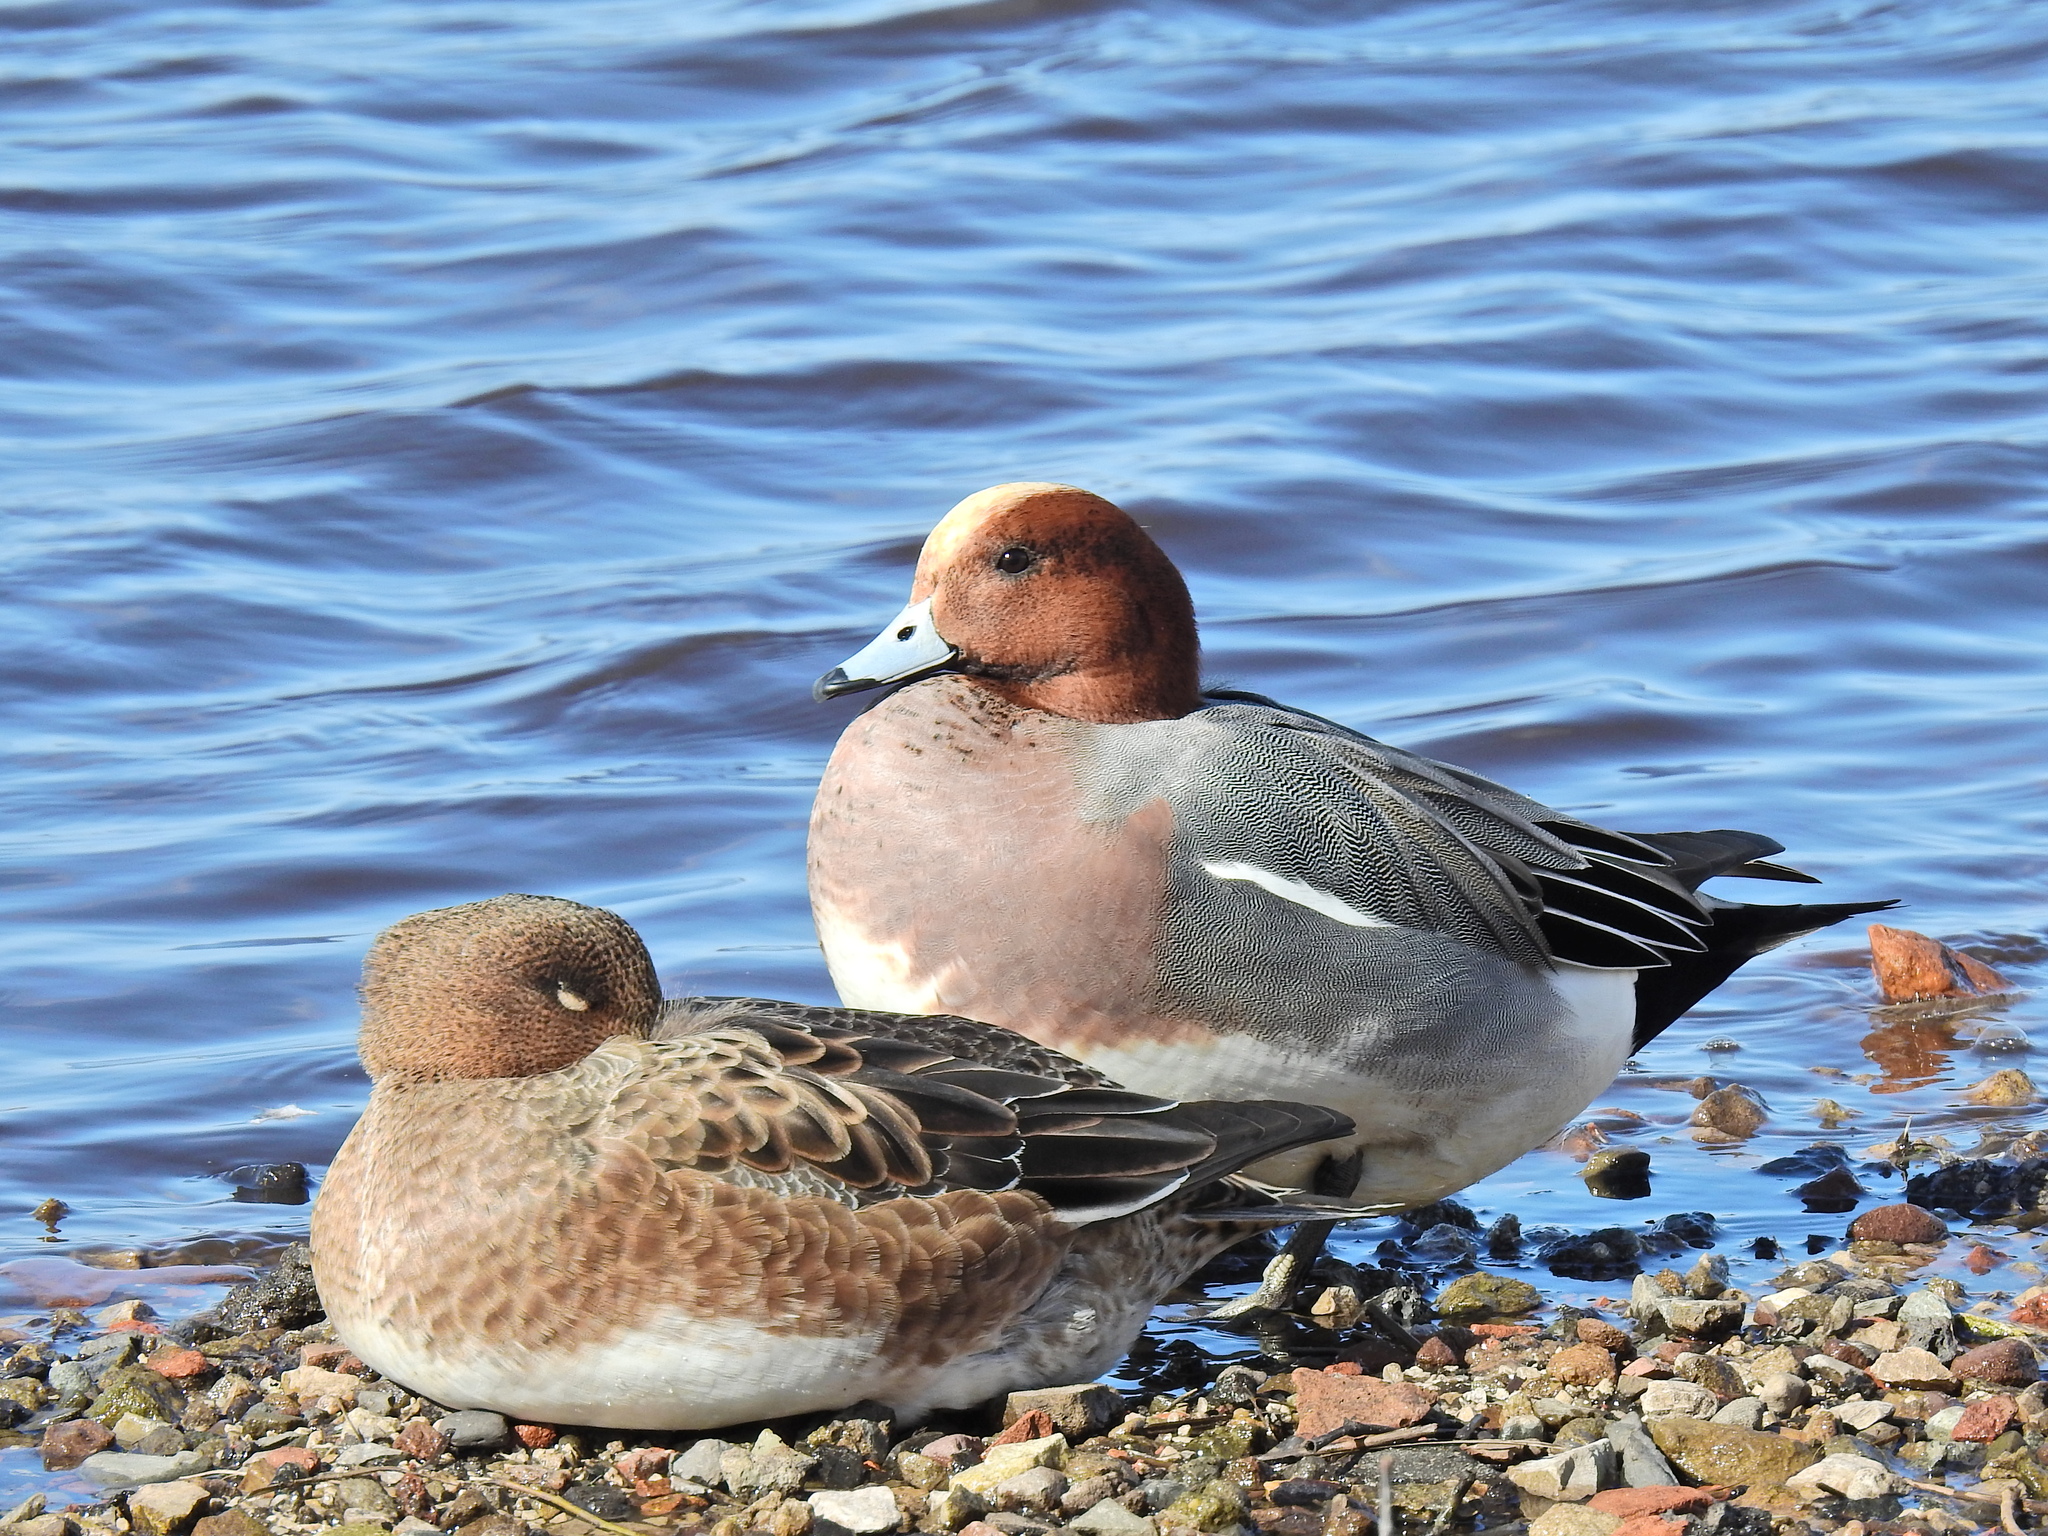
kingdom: Animalia
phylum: Chordata
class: Aves
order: Anseriformes
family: Anatidae
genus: Mareca
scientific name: Mareca penelope
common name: Eurasian wigeon
